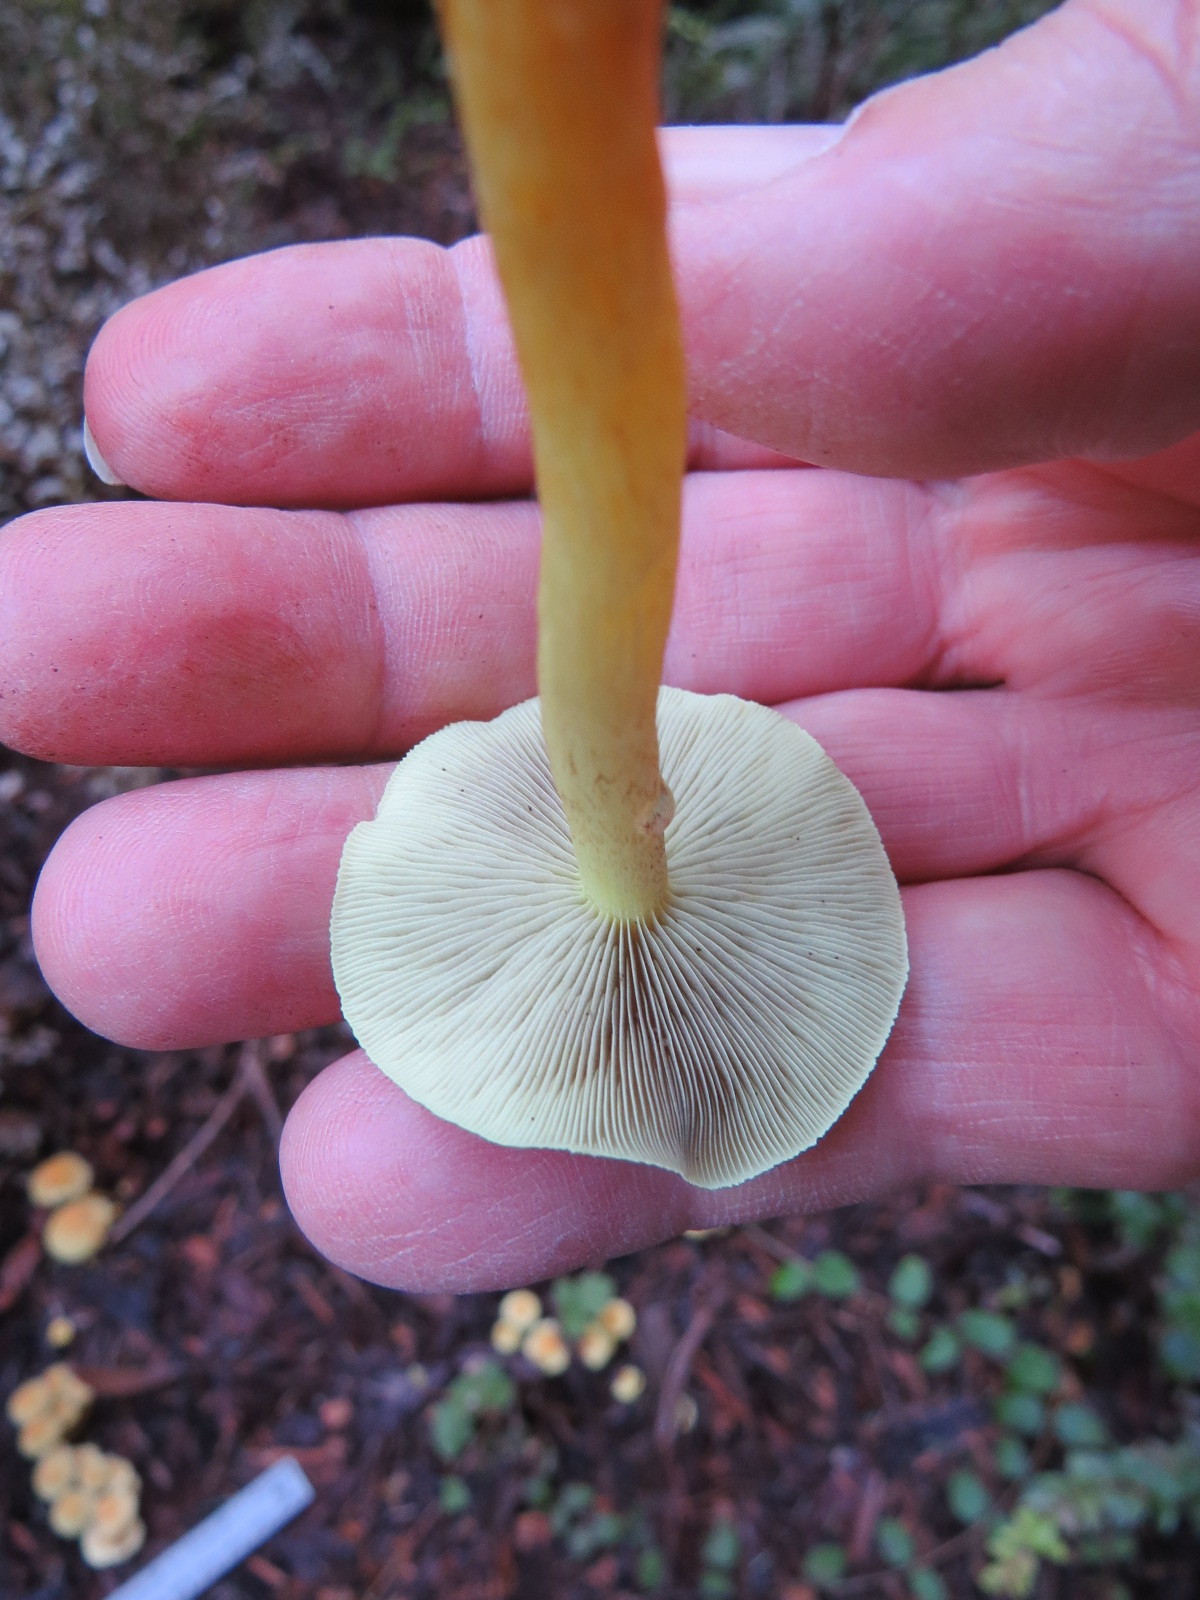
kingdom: Fungi
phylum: Basidiomycota
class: Agaricomycetes
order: Agaricales
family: Strophariaceae
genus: Hypholoma
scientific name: Hypholoma fasciculare
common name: Sulphur tuft
